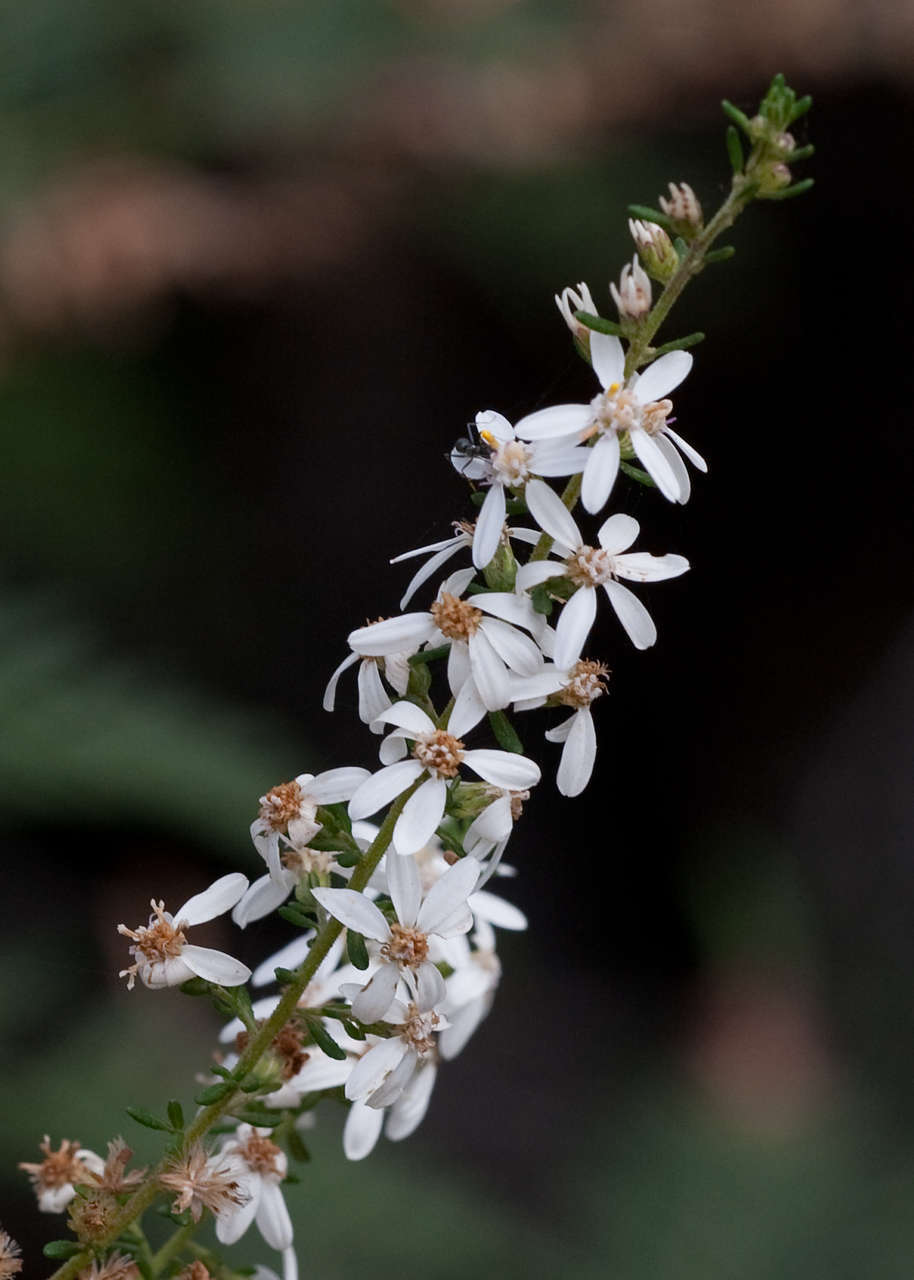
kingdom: Plantae
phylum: Tracheophyta
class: Magnoliopsida
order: Asterales
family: Asteraceae
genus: Olearia
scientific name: Olearia ramulosa
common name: Twiggy daisybush
